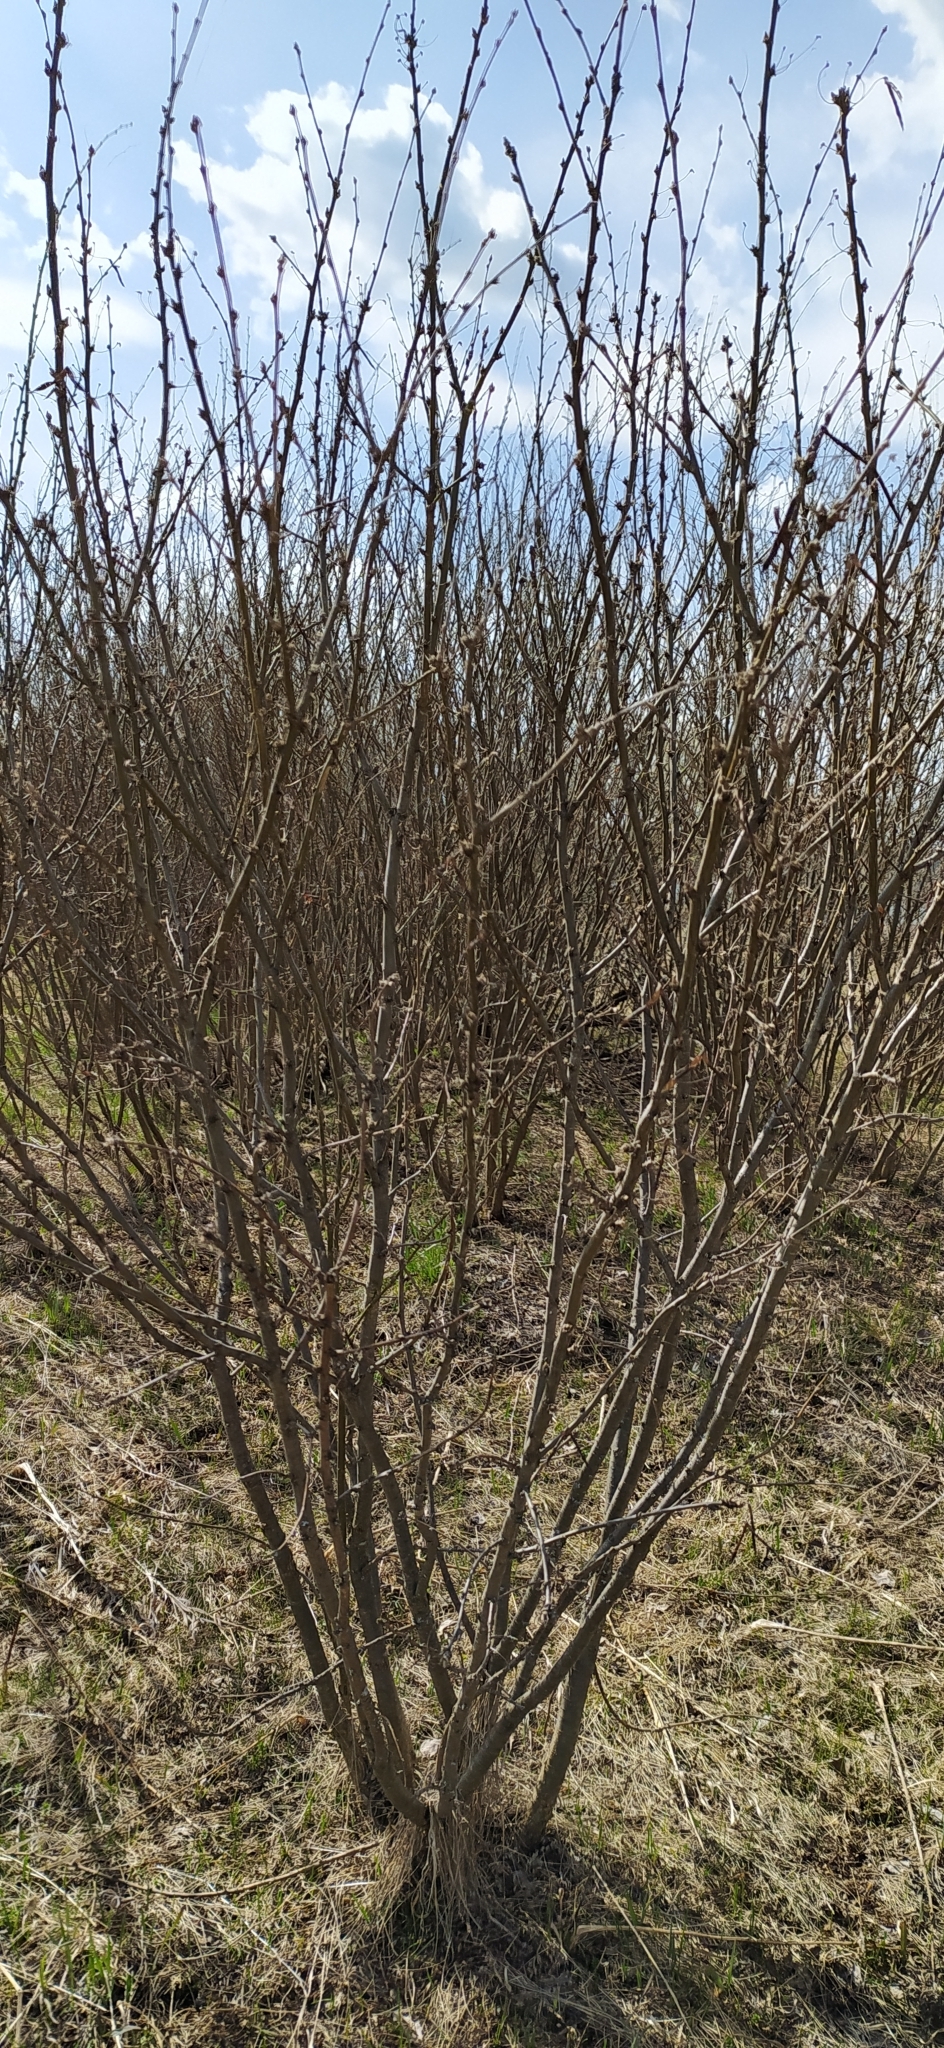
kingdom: Plantae
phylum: Tracheophyta
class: Magnoliopsida
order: Fabales
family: Fabaceae
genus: Caragana
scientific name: Caragana arborescens
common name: Siberian peashrub
